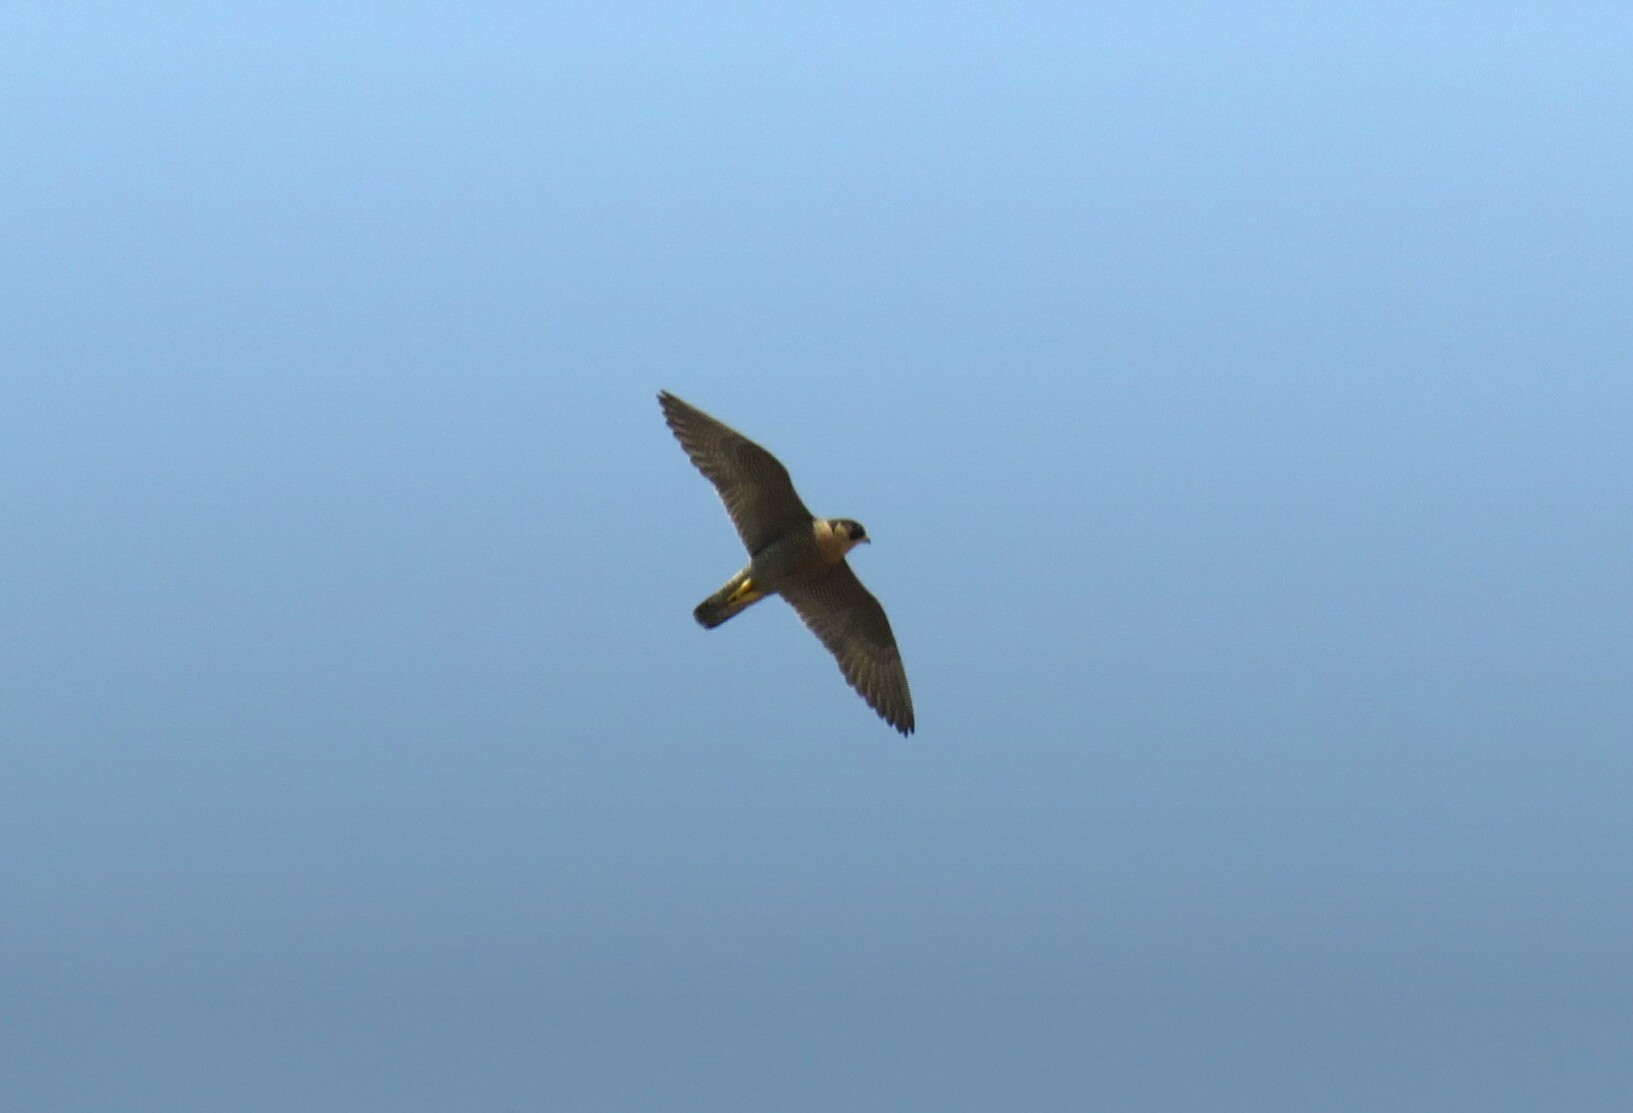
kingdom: Animalia
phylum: Chordata
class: Aves
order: Falconiformes
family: Falconidae
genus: Falco
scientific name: Falco peregrinus
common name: Peregrine falcon
